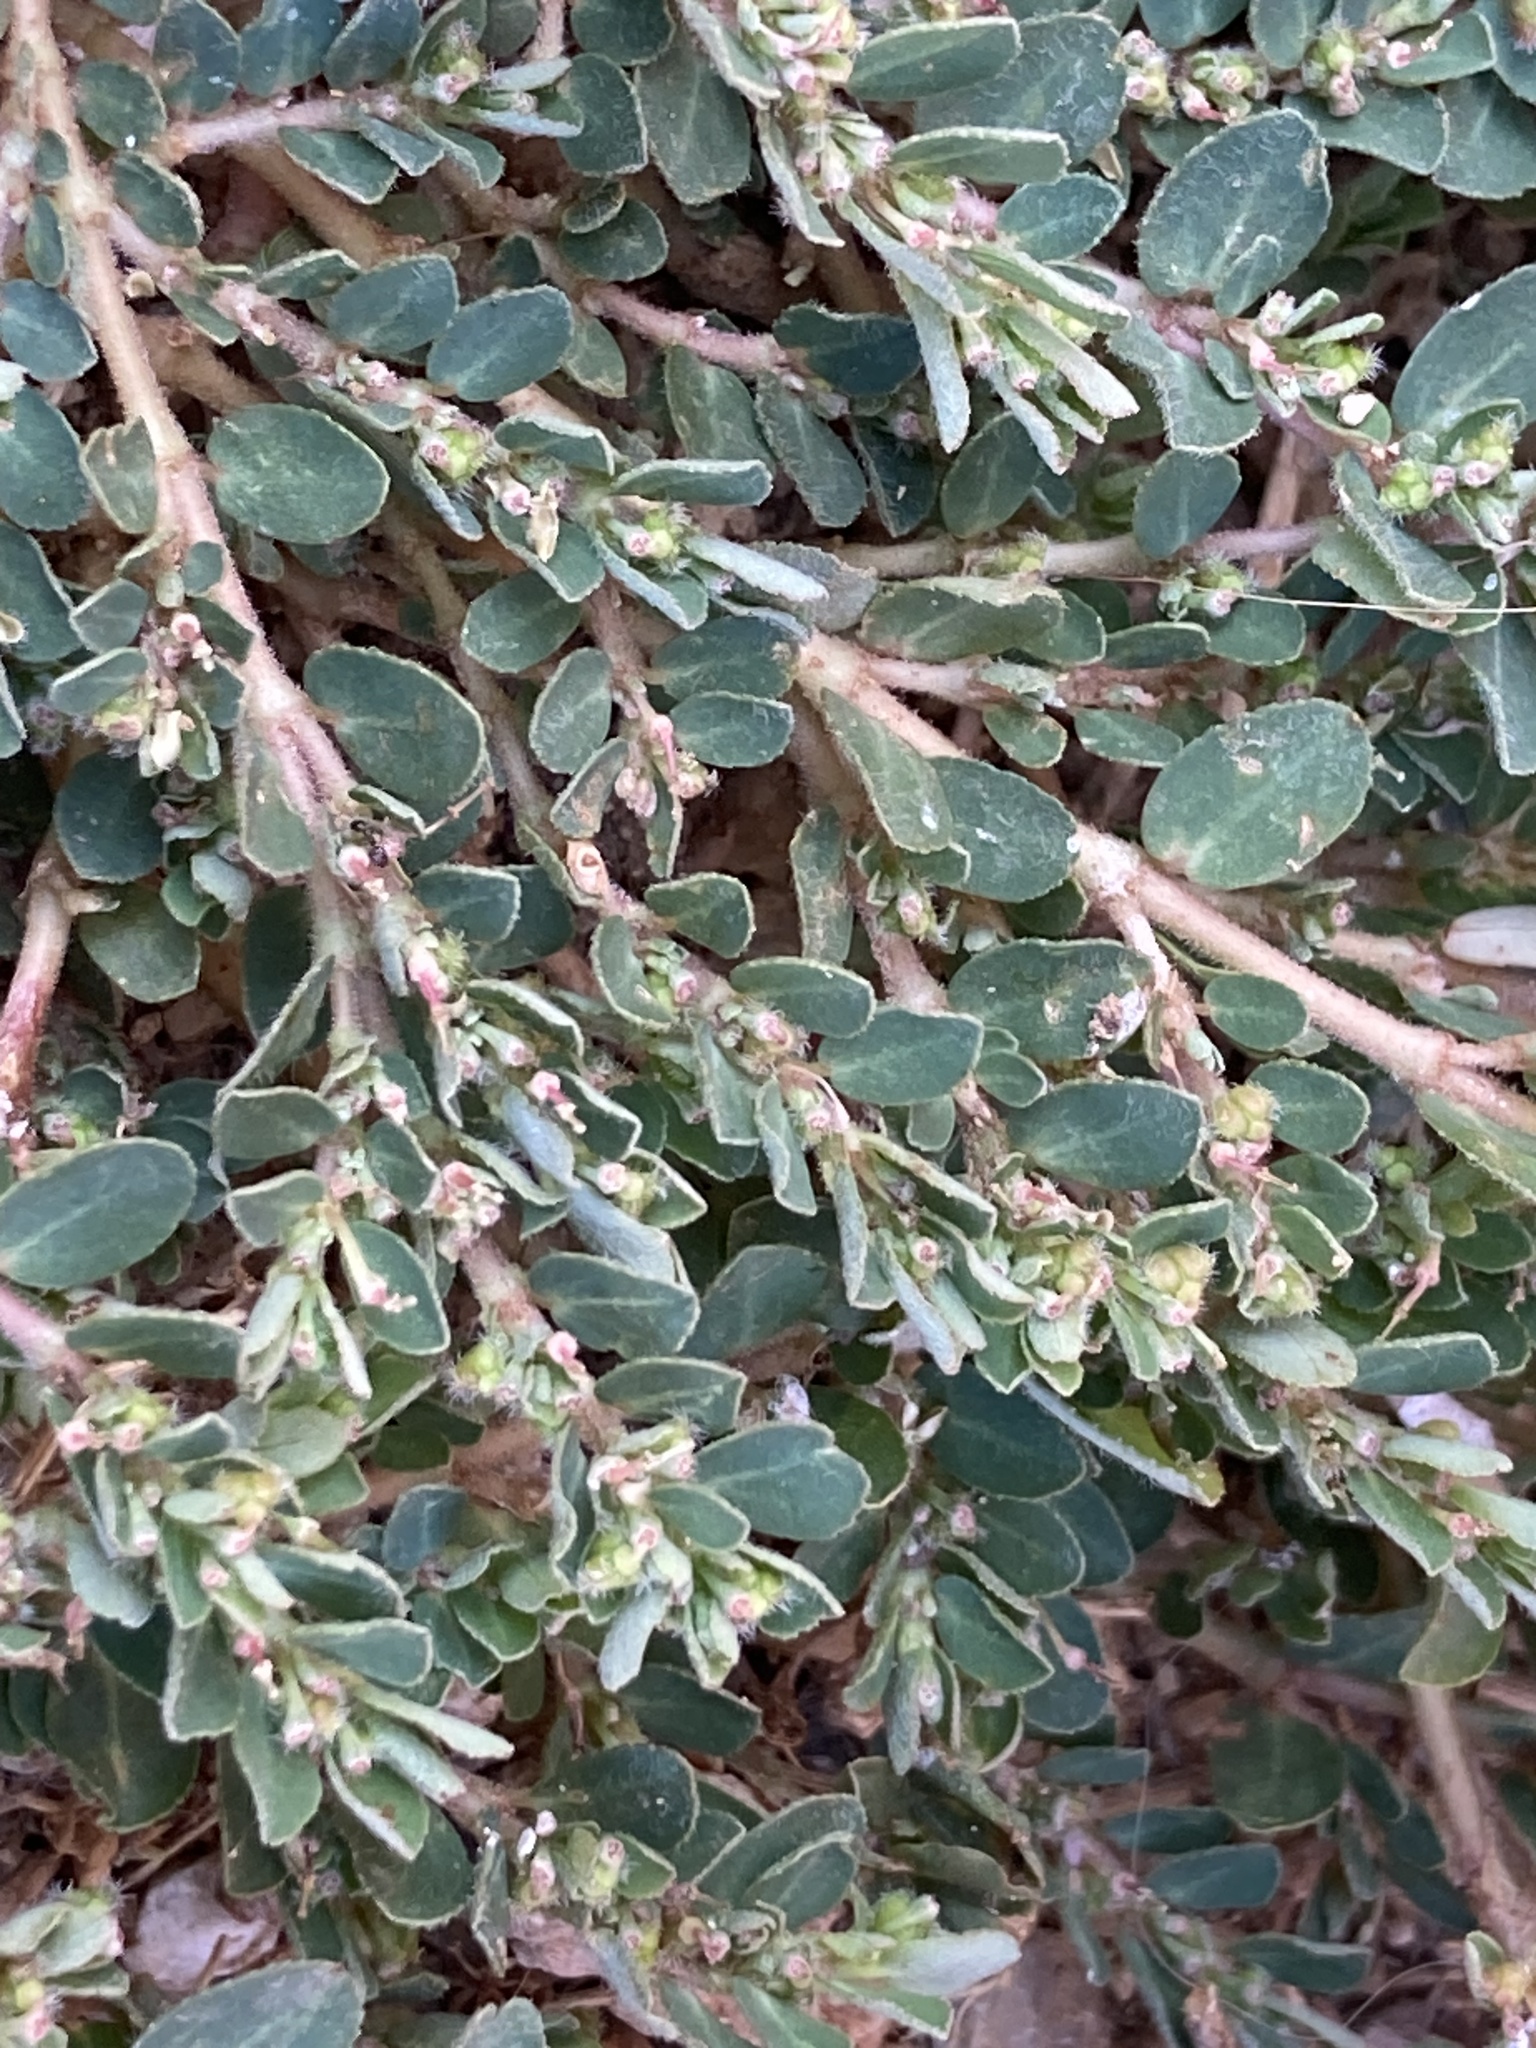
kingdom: Plantae
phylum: Tracheophyta
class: Magnoliopsida
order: Malpighiales
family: Euphorbiaceae
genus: Euphorbia
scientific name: Euphorbia prostrata
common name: Prostrate sandmat
